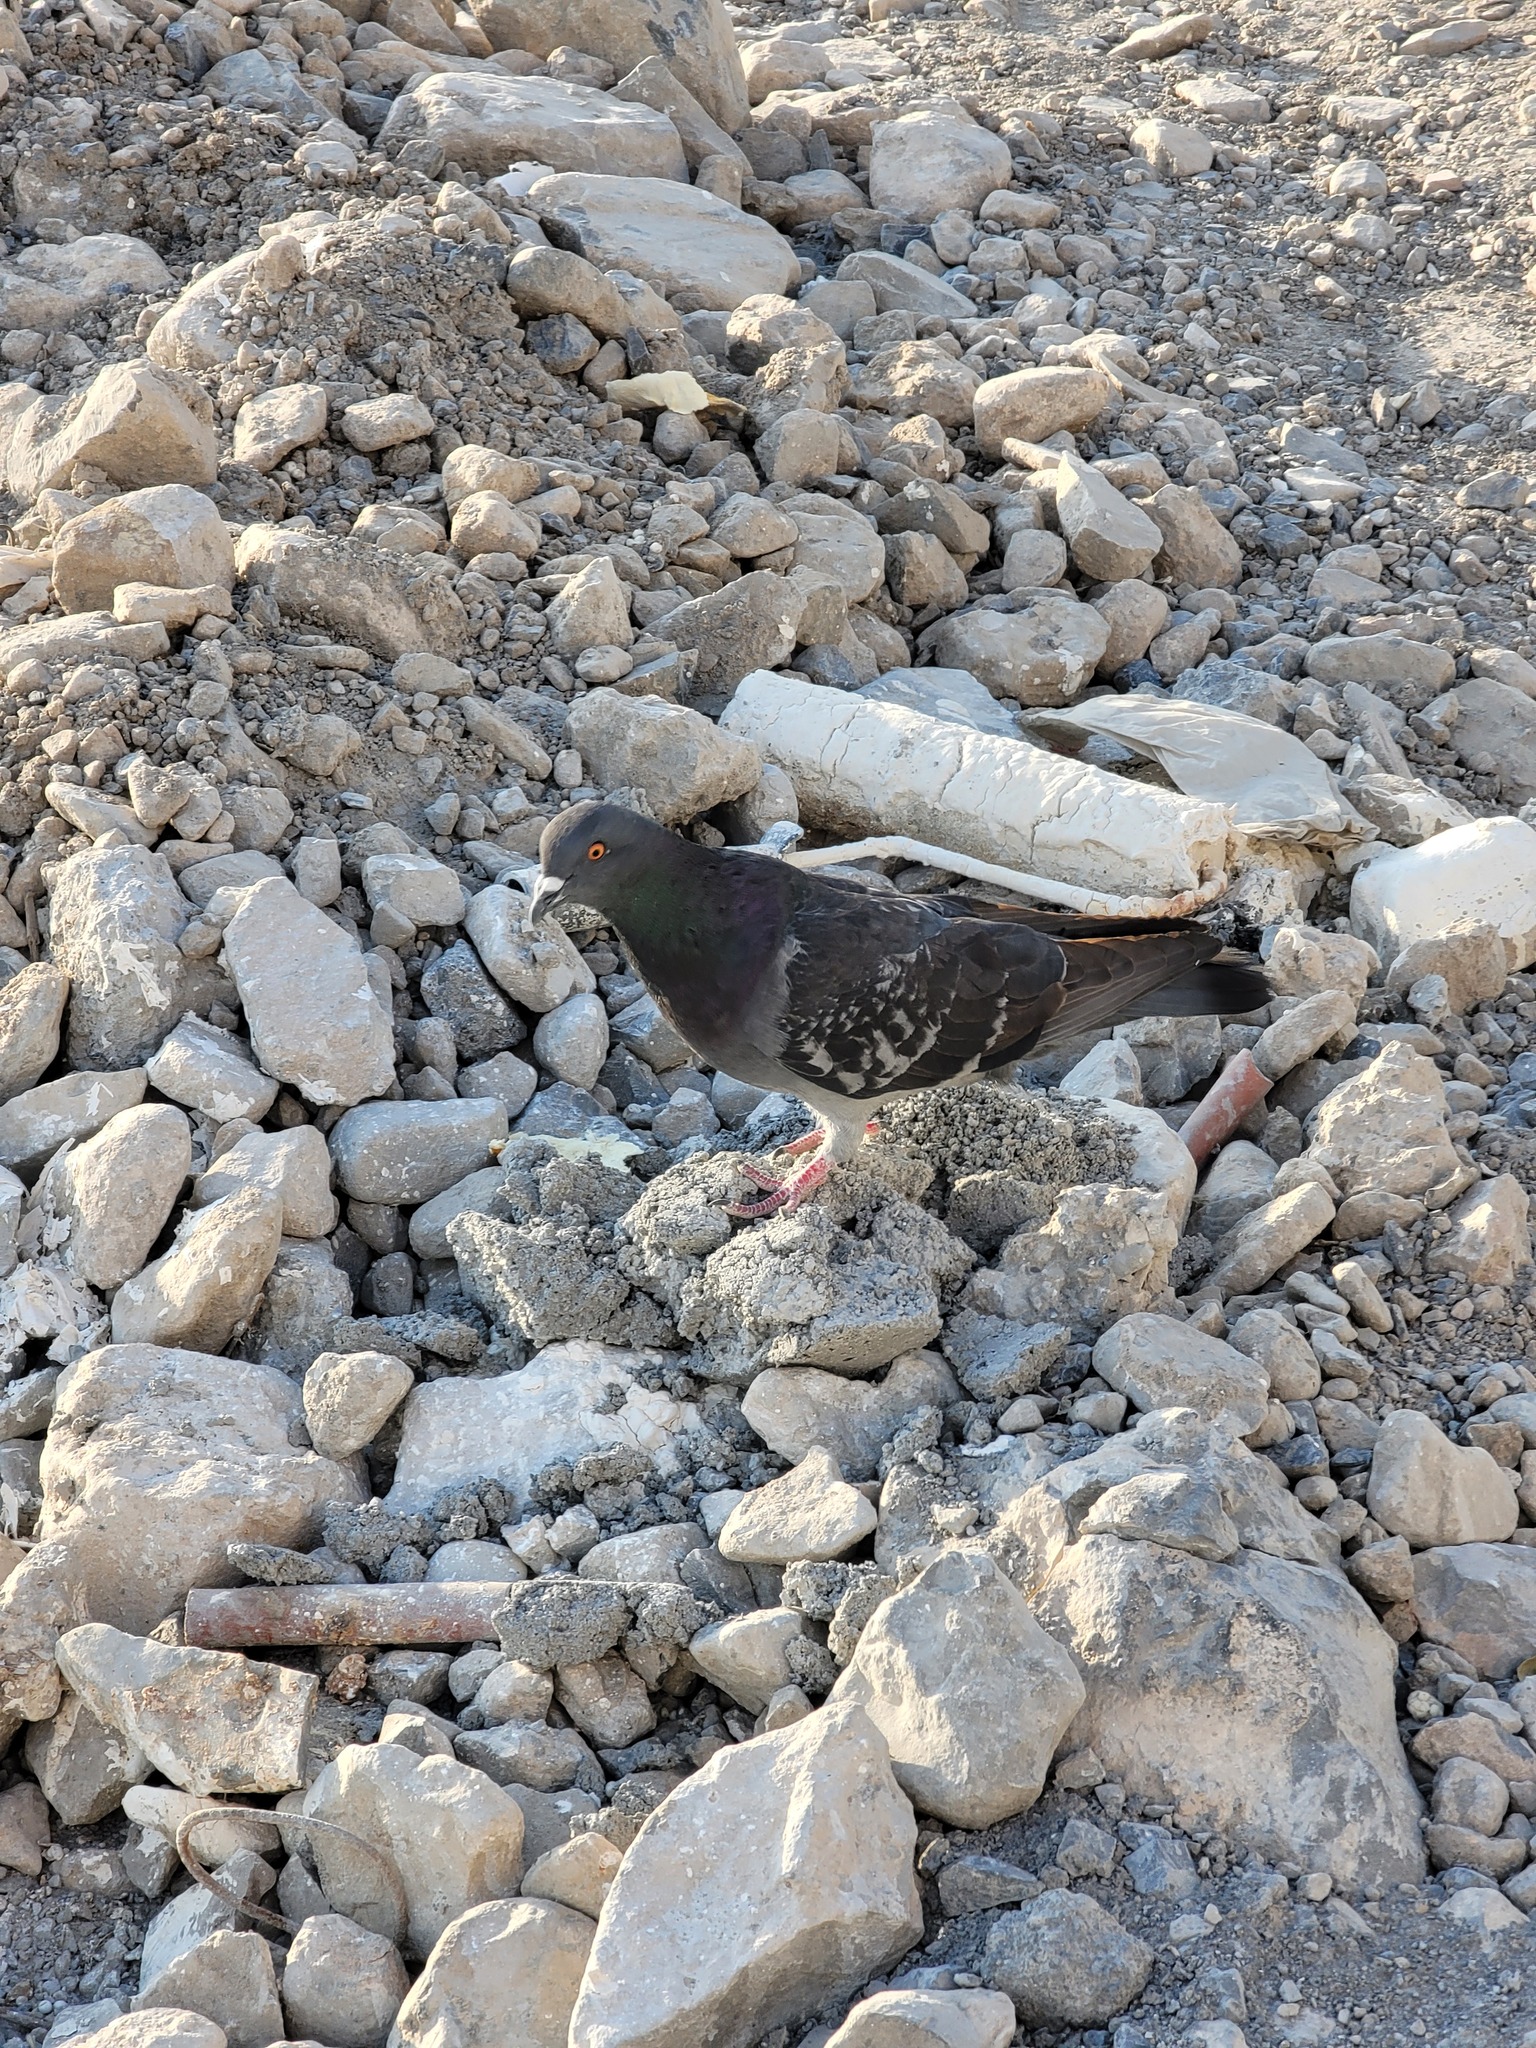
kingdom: Animalia
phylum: Chordata
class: Aves
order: Columbiformes
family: Columbidae
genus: Columba
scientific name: Columba livia
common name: Rock pigeon
